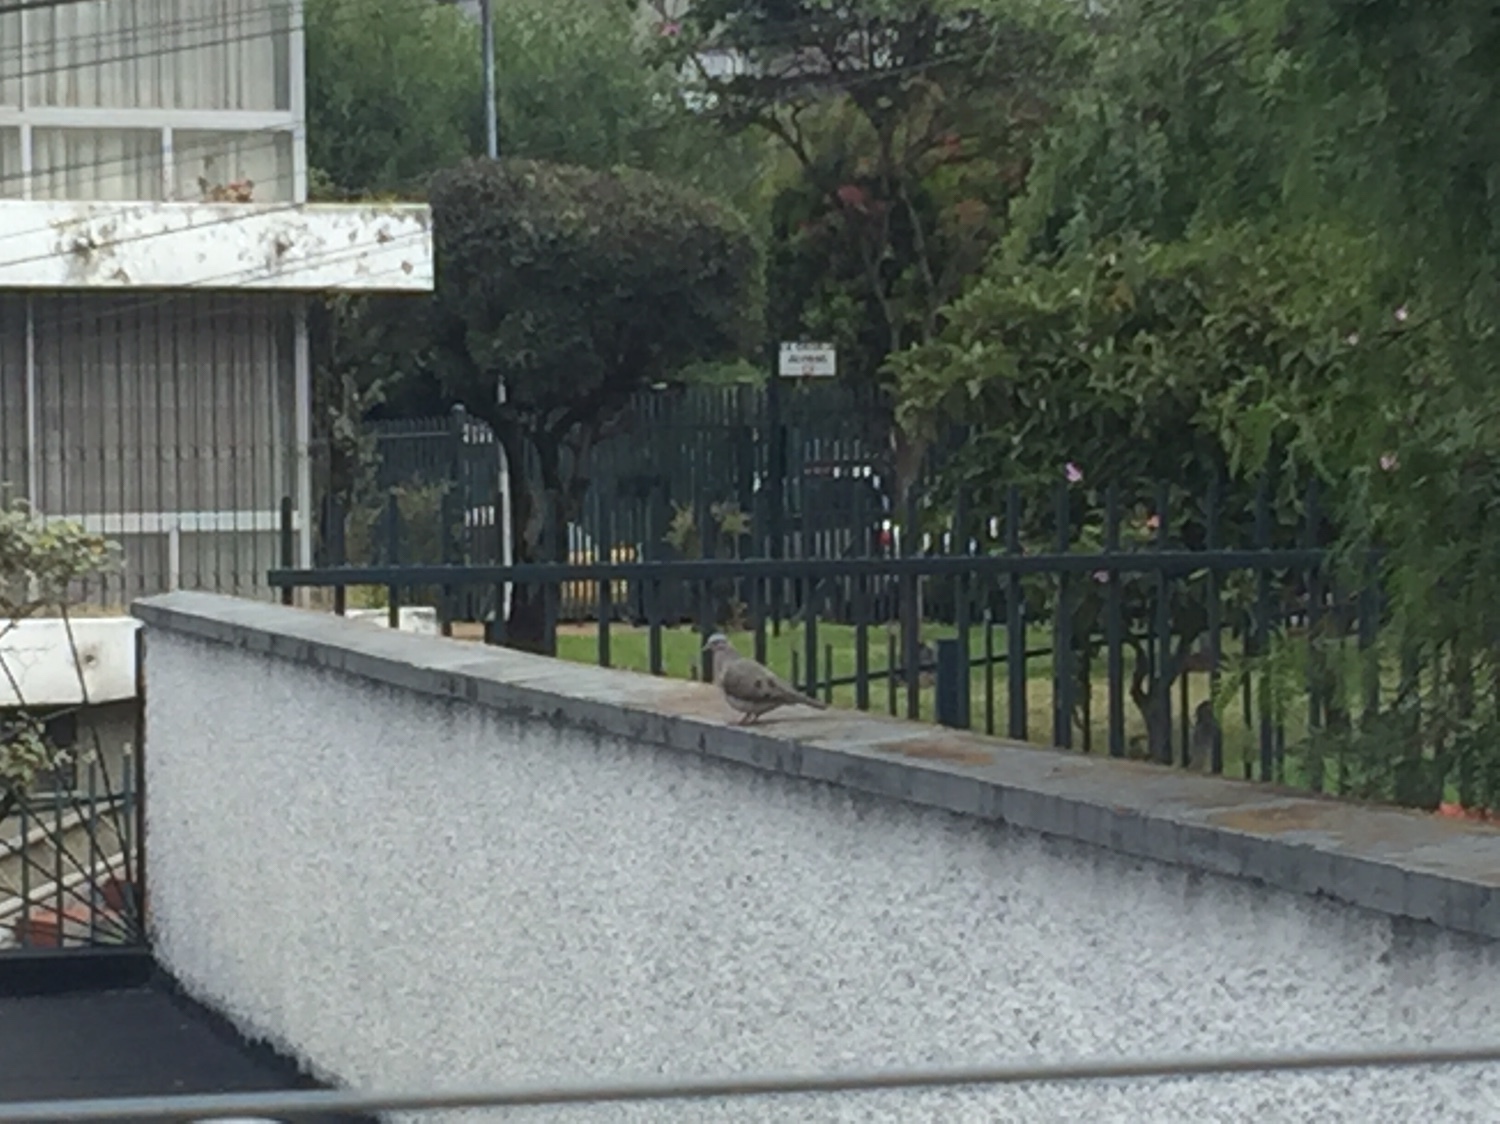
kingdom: Animalia
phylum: Chordata
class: Aves
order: Columbiformes
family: Columbidae
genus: Zenaida
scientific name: Zenaida auriculata
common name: Eared dove
